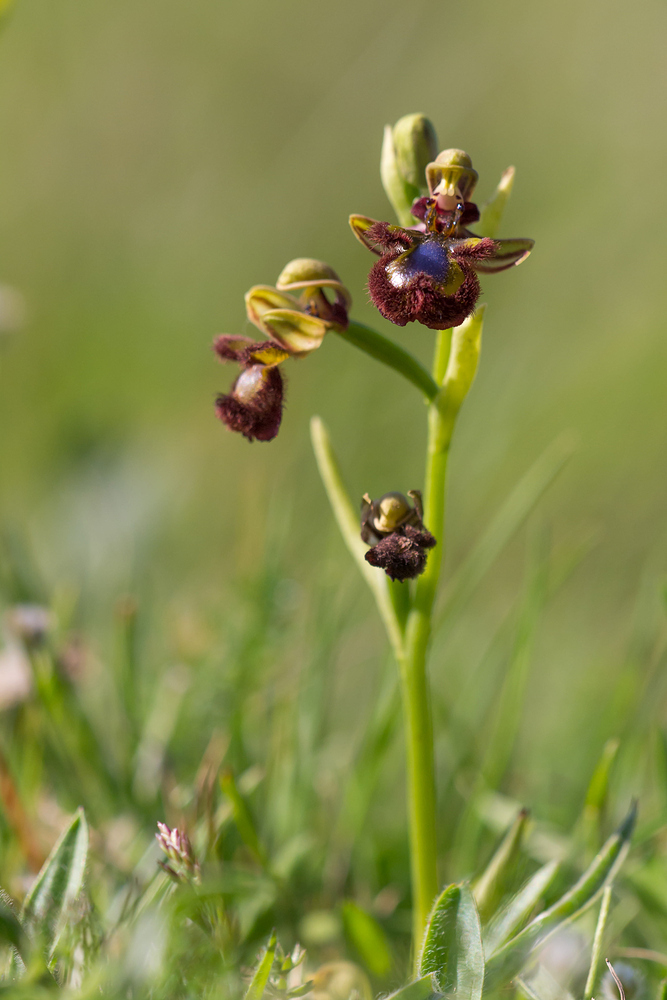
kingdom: Plantae
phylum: Tracheophyta
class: Liliopsida
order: Asparagales
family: Orchidaceae
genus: Ophrys
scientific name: Ophrys speculum
